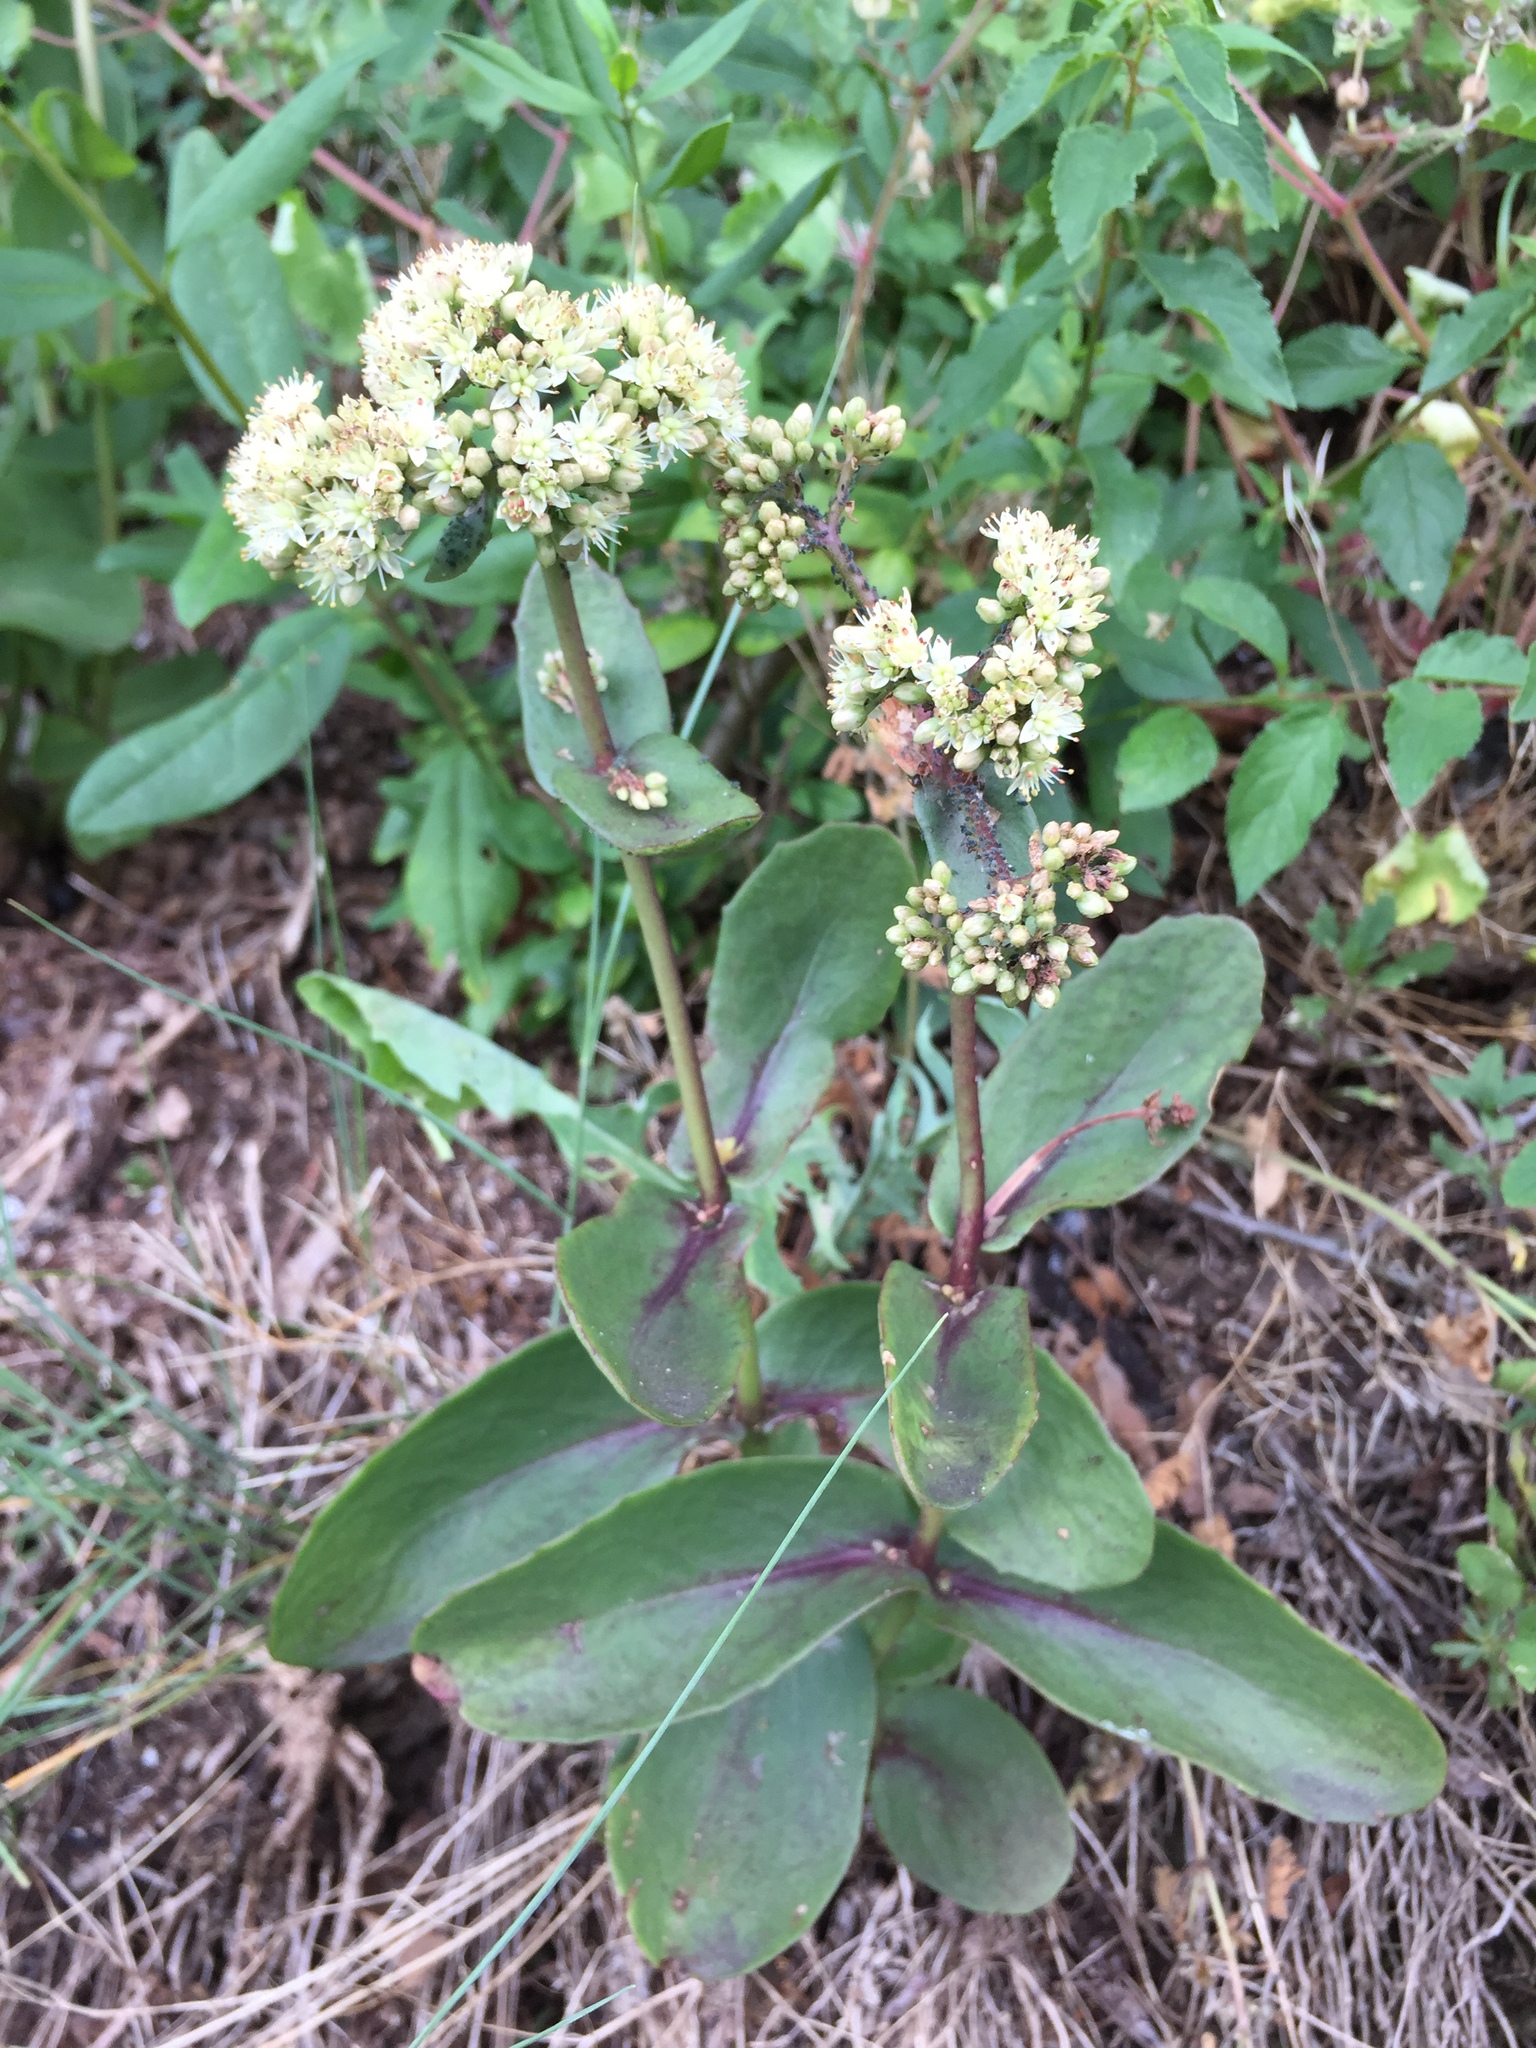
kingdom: Plantae
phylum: Tracheophyta
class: Magnoliopsida
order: Saxifragales
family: Crassulaceae
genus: Hylotelephium
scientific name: Hylotelephium maximum
